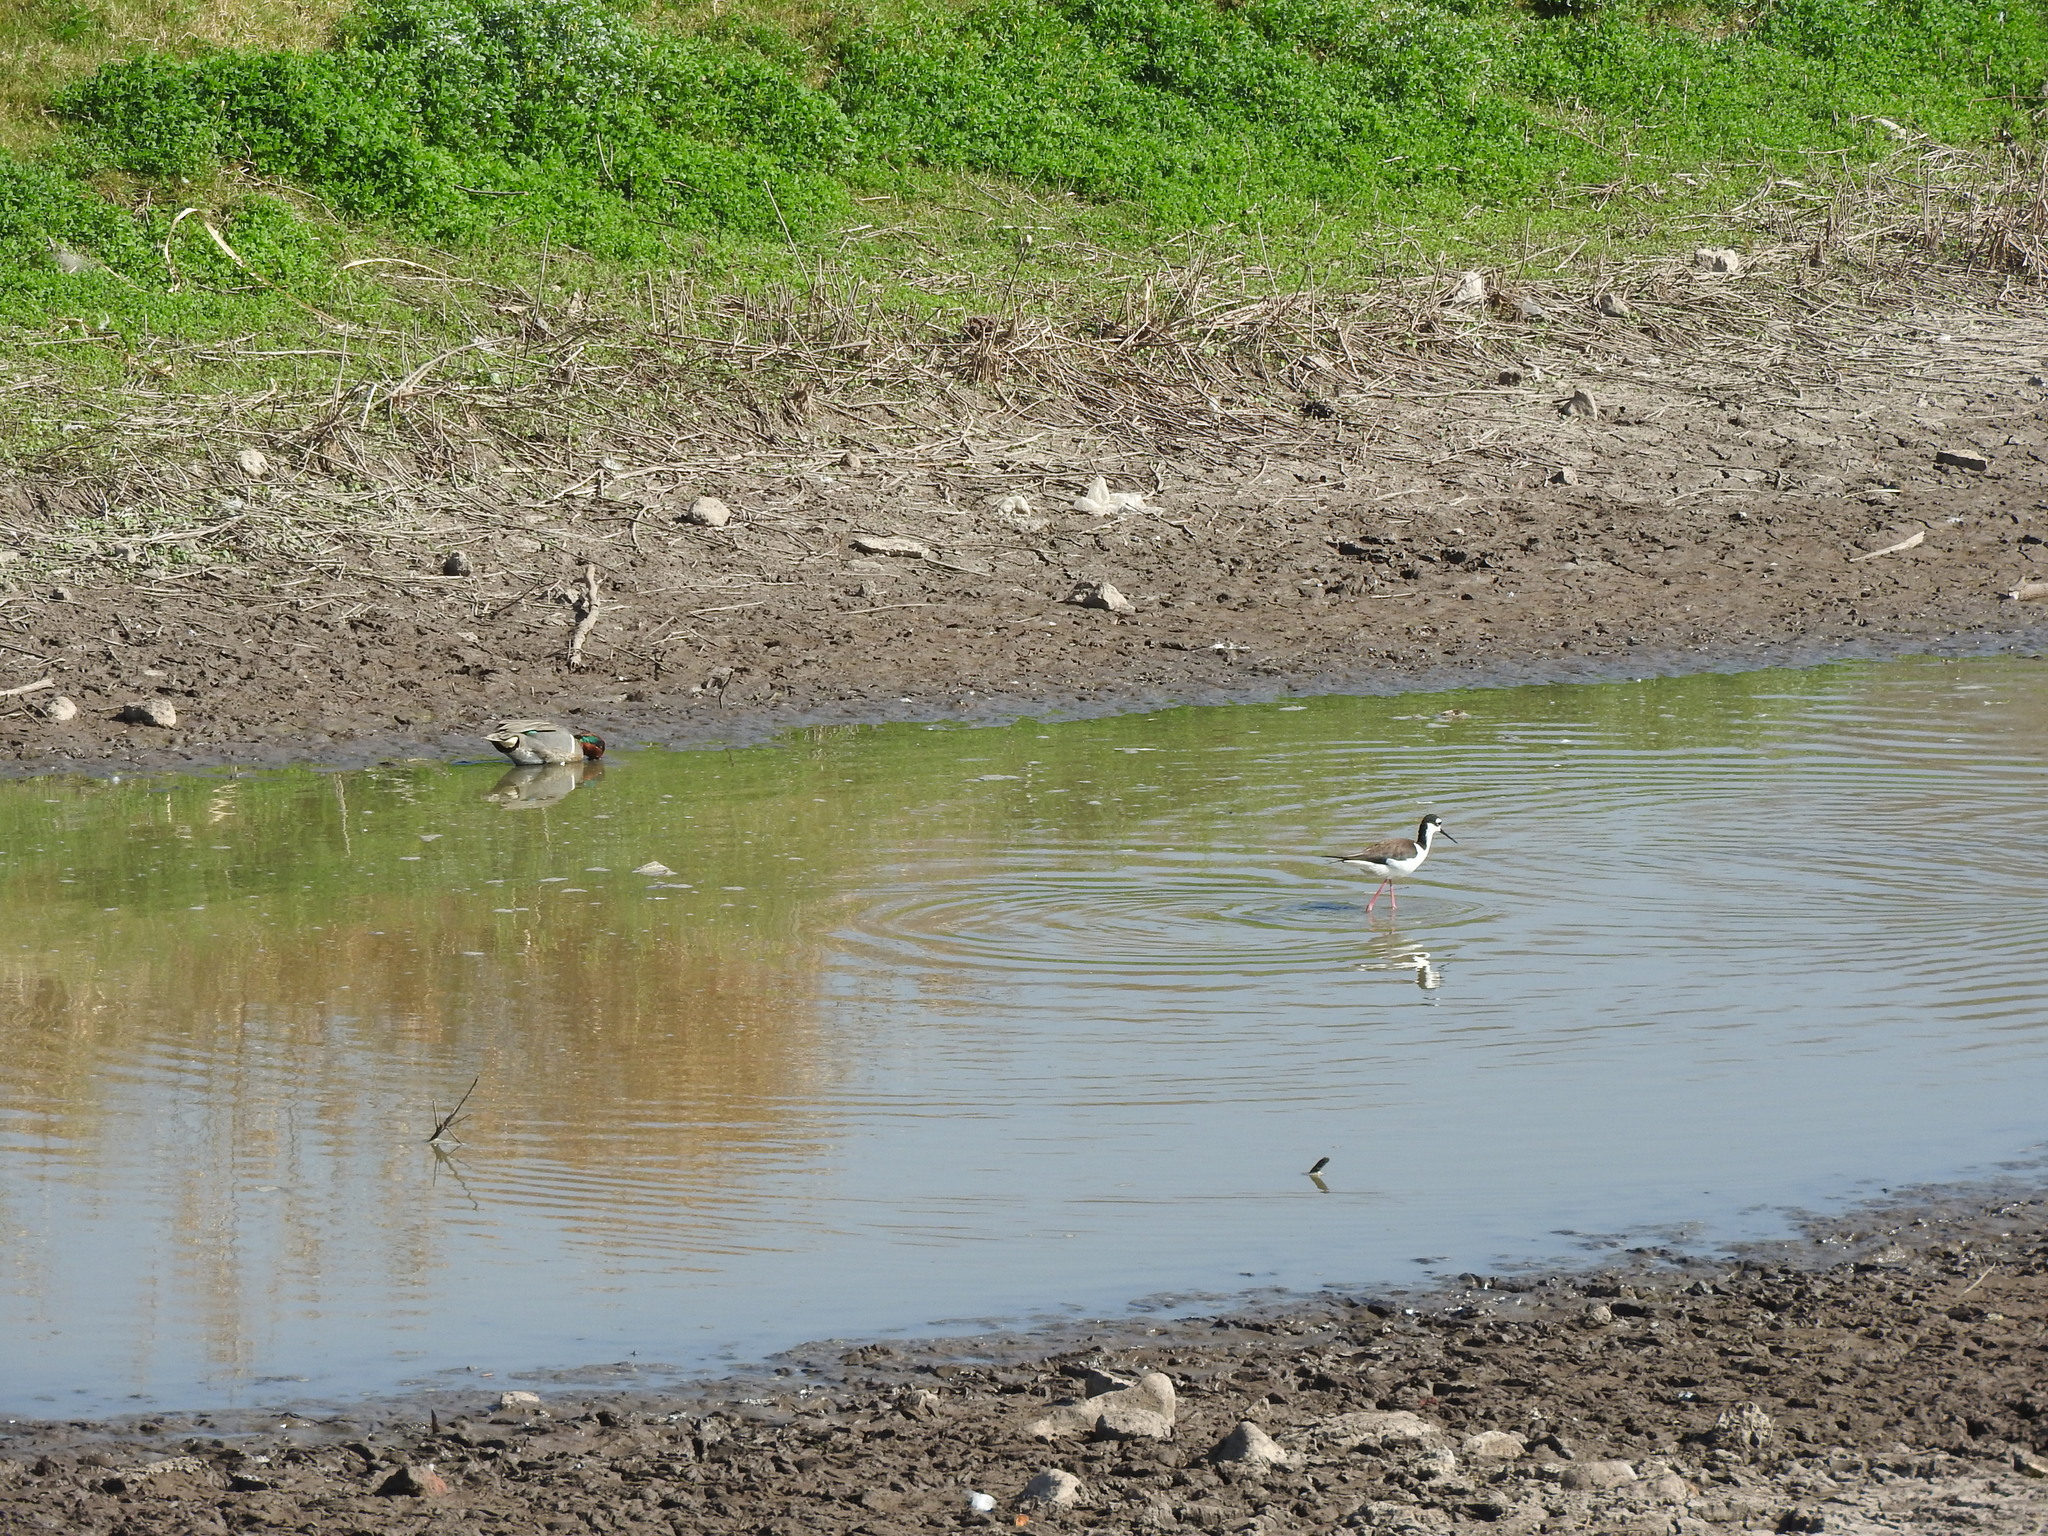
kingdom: Animalia
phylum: Chordata
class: Aves
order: Charadriiformes
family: Recurvirostridae
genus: Himantopus
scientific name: Himantopus mexicanus
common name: Black-necked stilt
